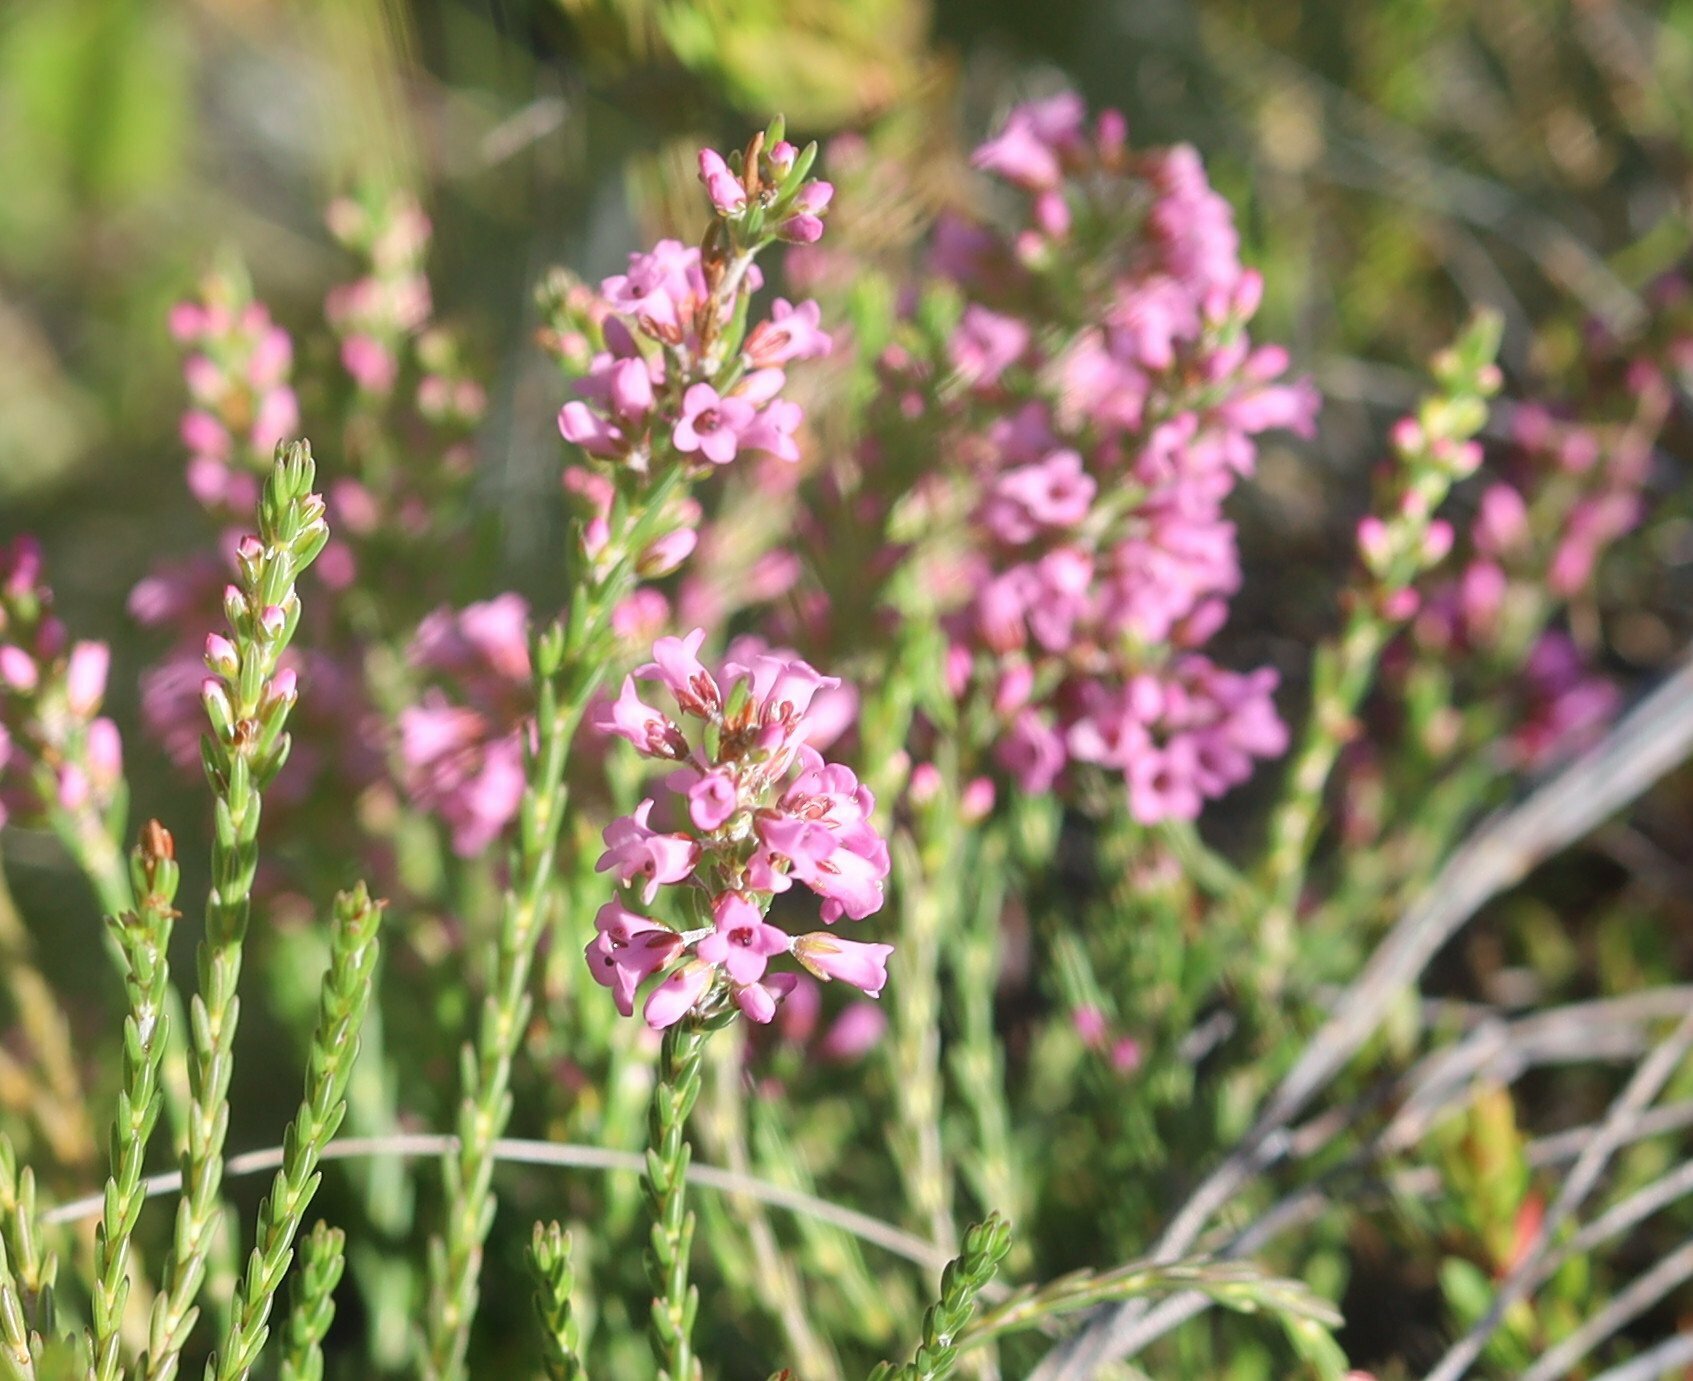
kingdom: Plantae
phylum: Tracheophyta
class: Magnoliopsida
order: Ericales
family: Ericaceae
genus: Erica
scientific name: Erica pulchella
